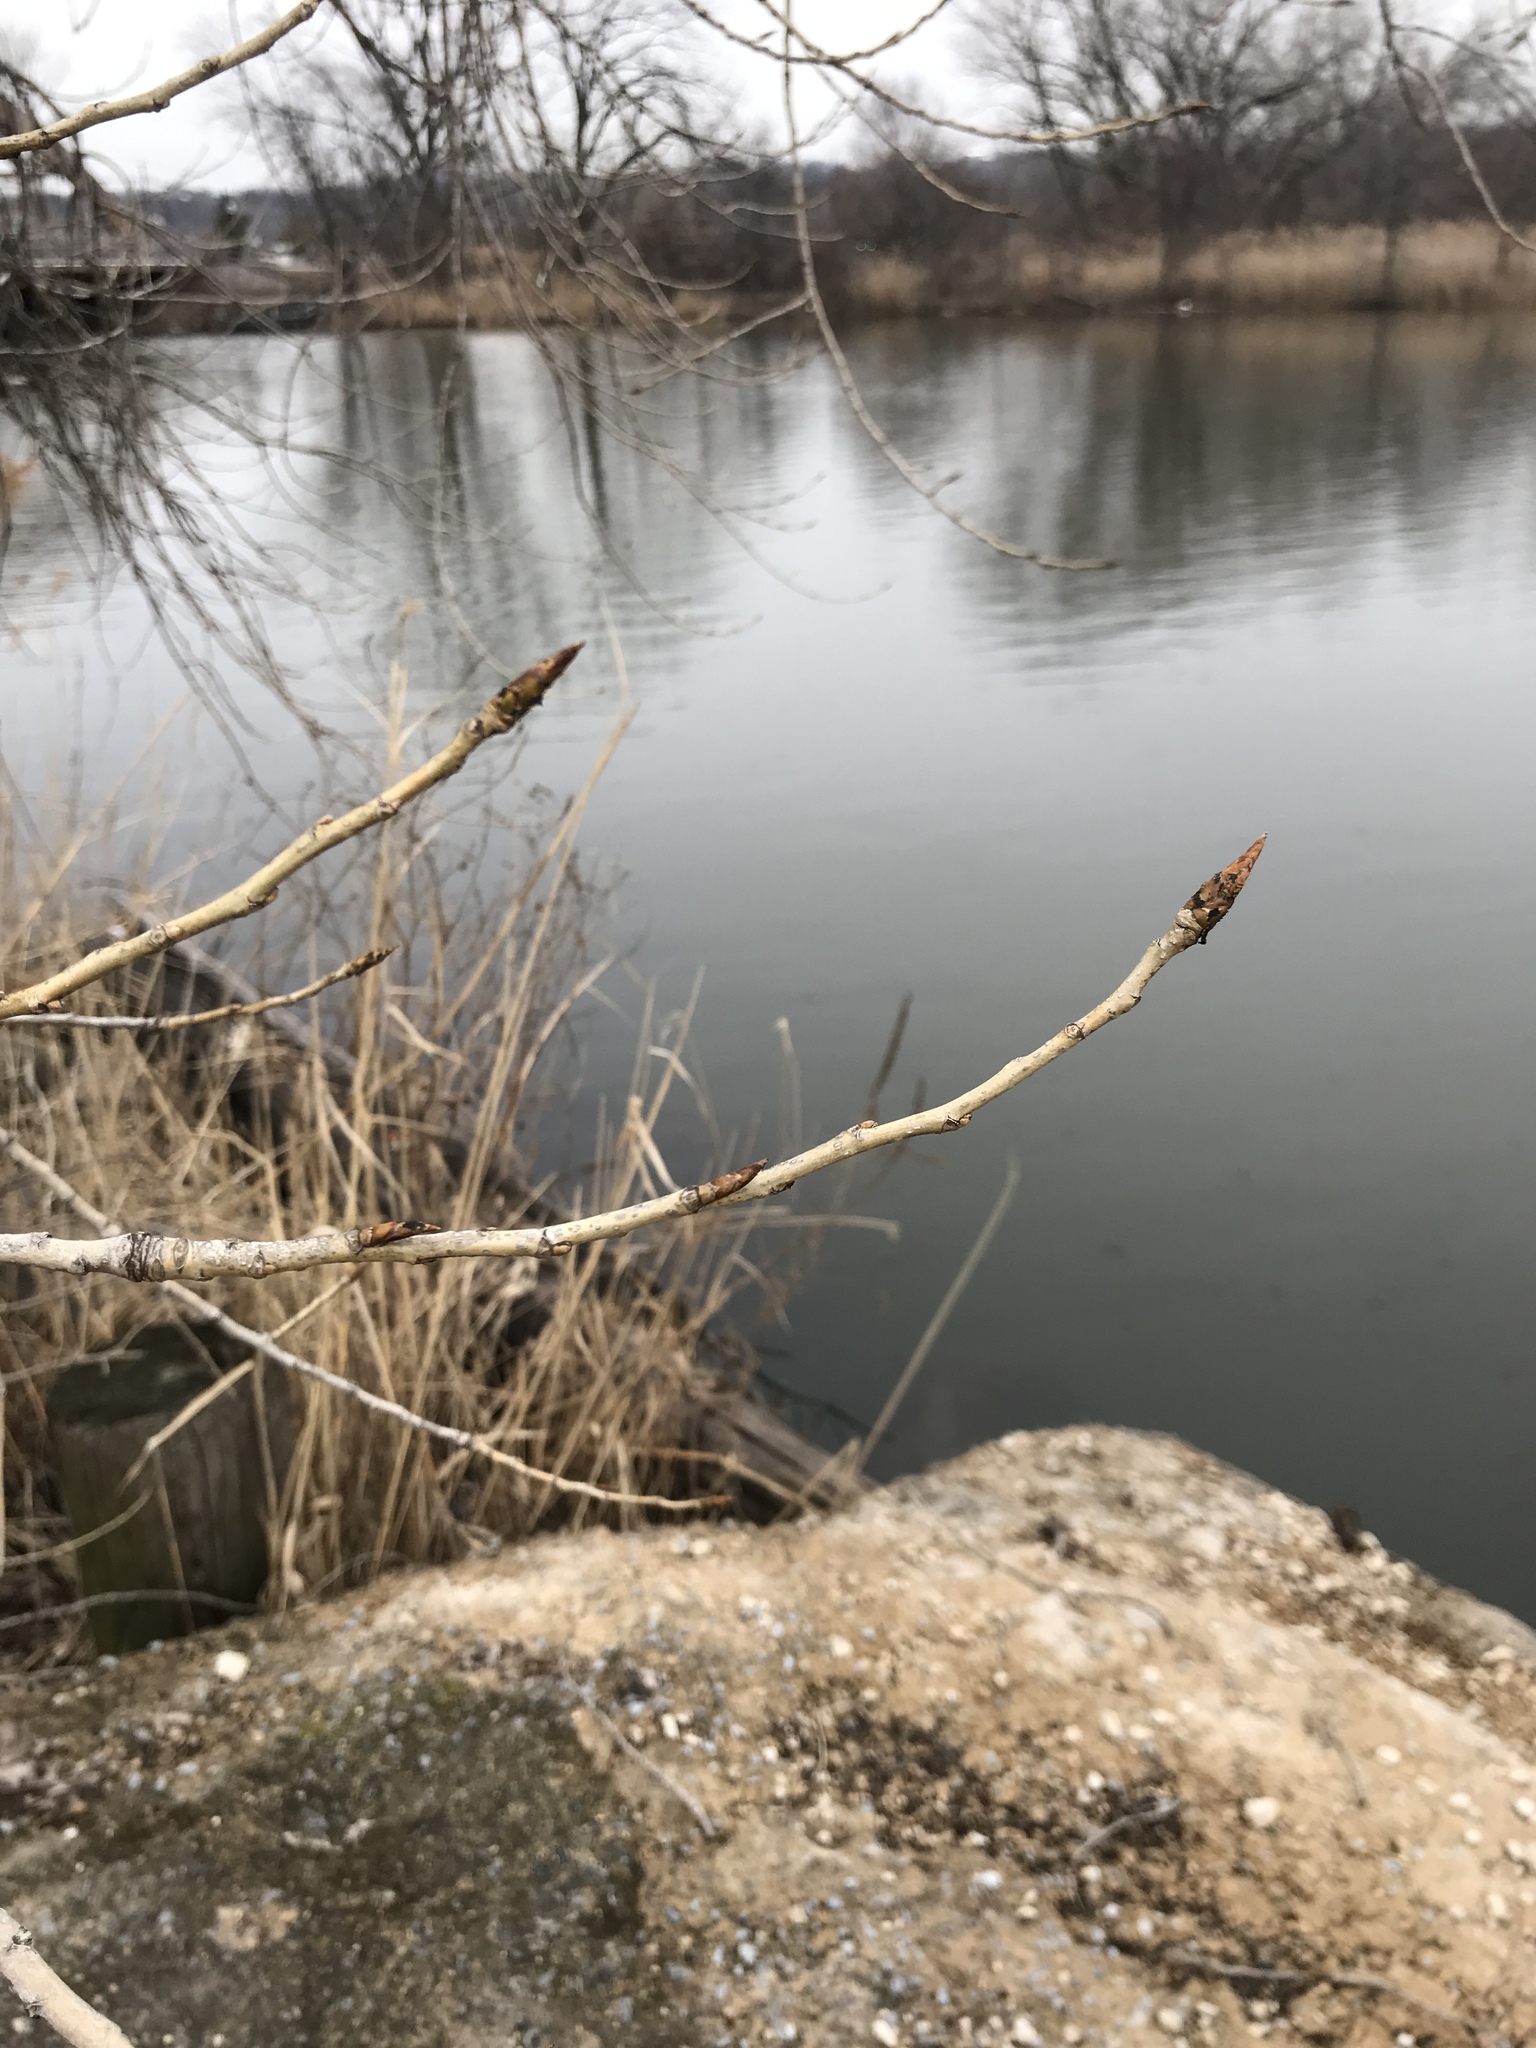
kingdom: Plantae
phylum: Tracheophyta
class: Magnoliopsida
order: Malpighiales
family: Salicaceae
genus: Populus
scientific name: Populus deltoides
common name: Eastern cottonwood
